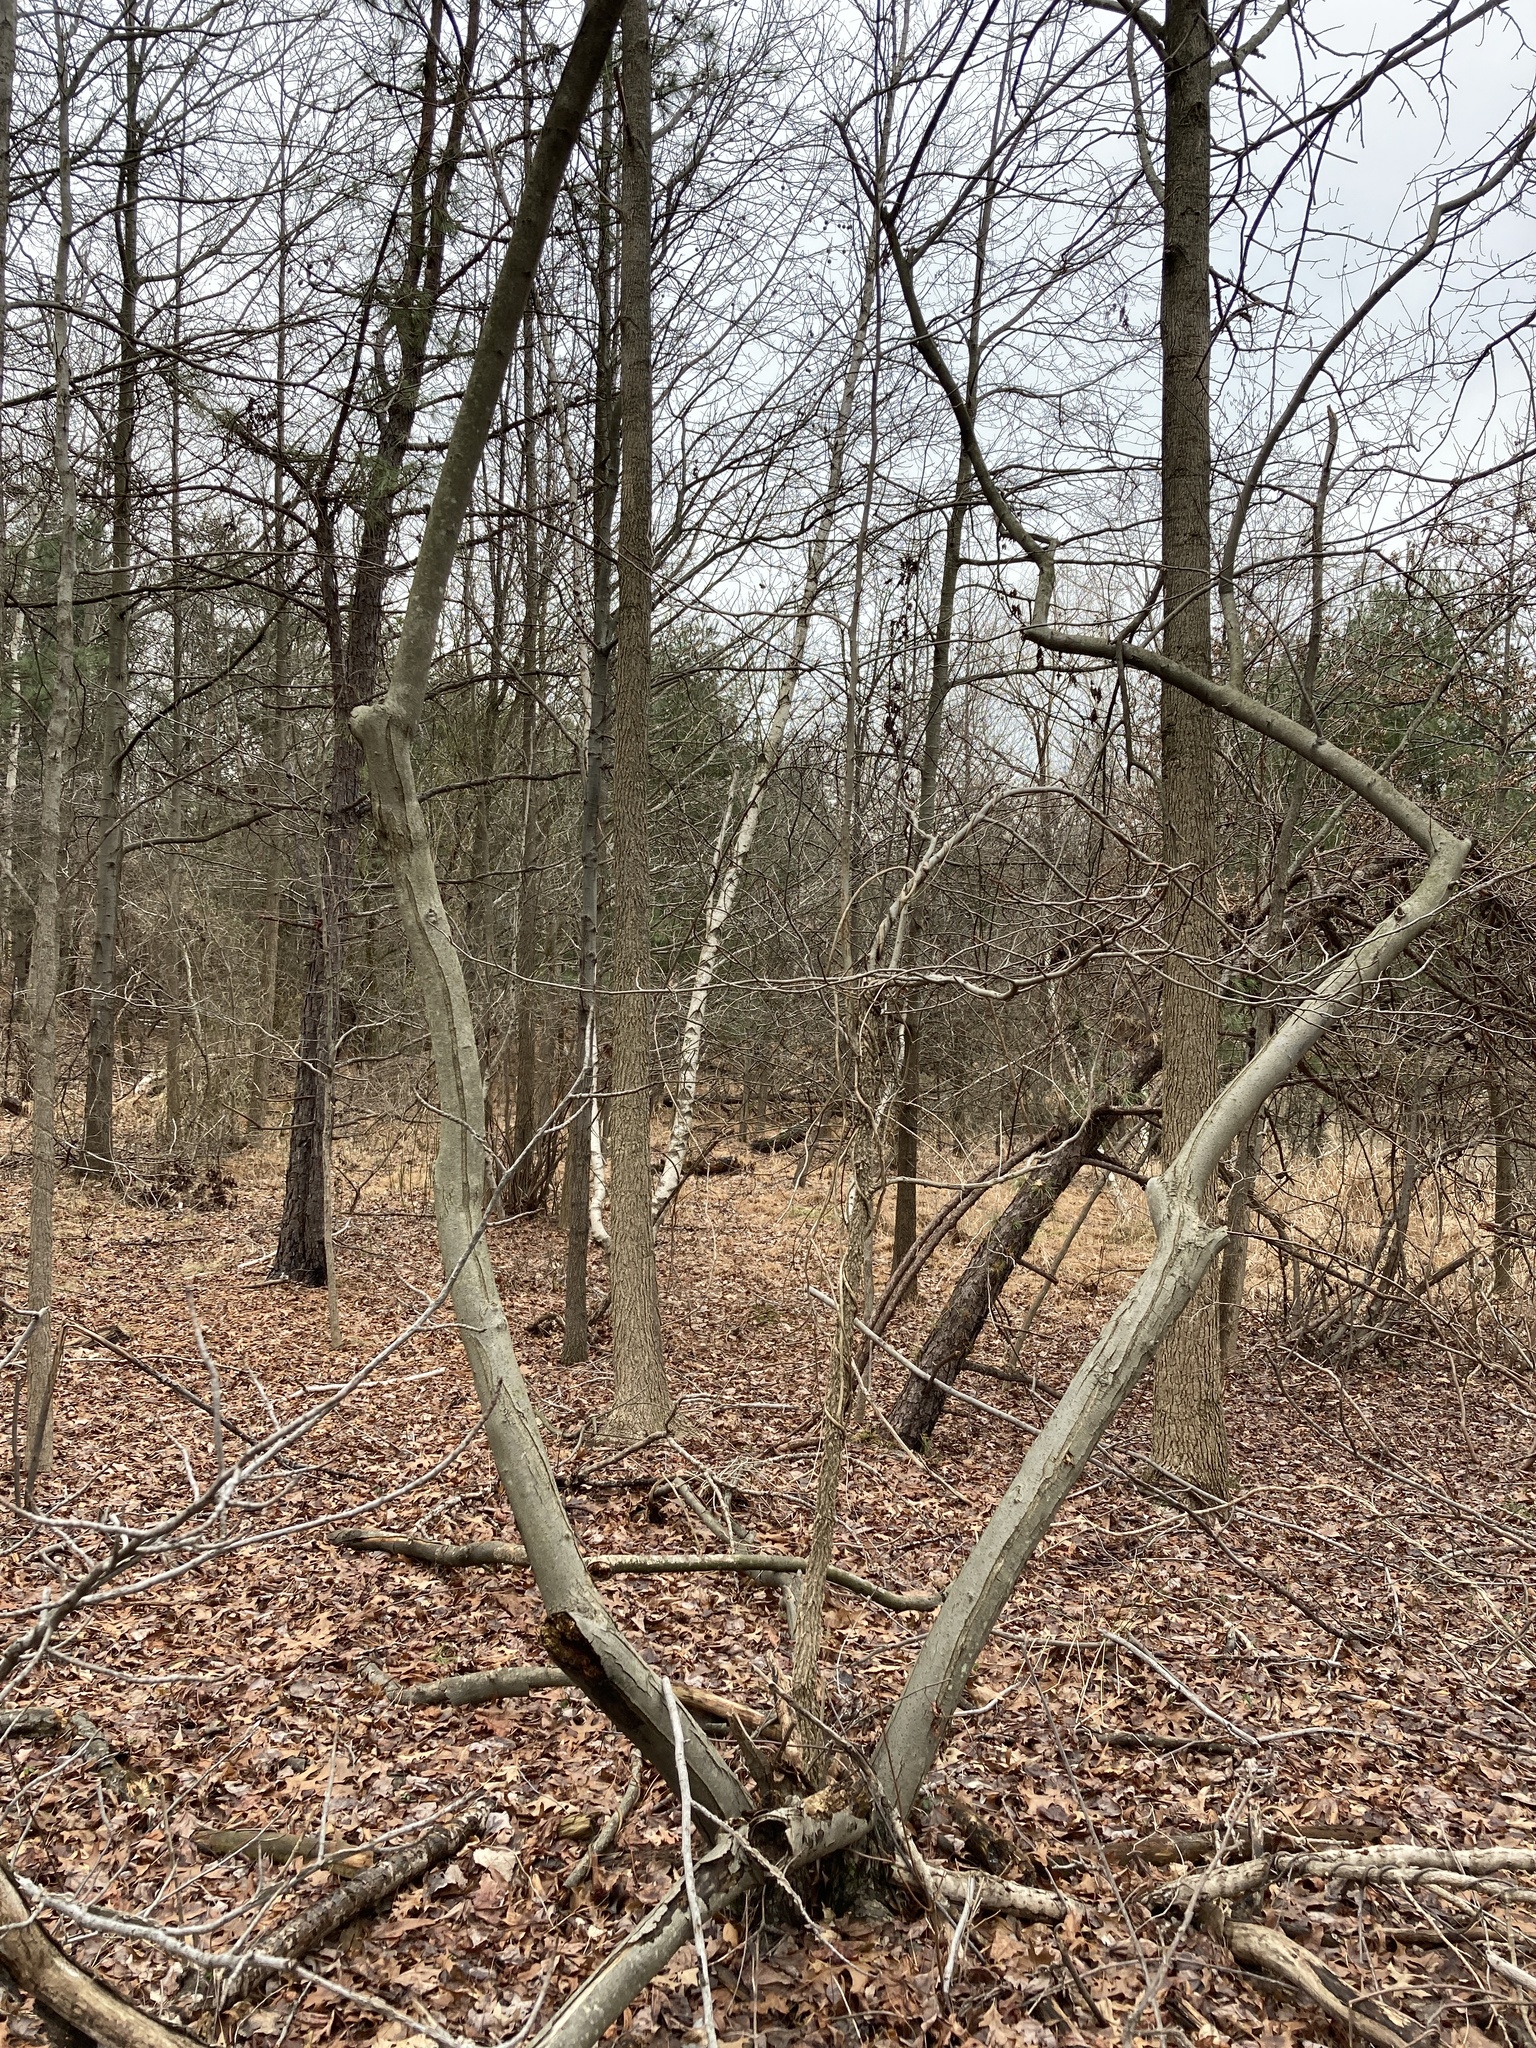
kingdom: Plantae
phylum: Tracheophyta
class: Magnoliopsida
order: Rosales
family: Elaeagnaceae
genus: Elaeagnus
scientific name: Elaeagnus umbellata
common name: Autumn olive
